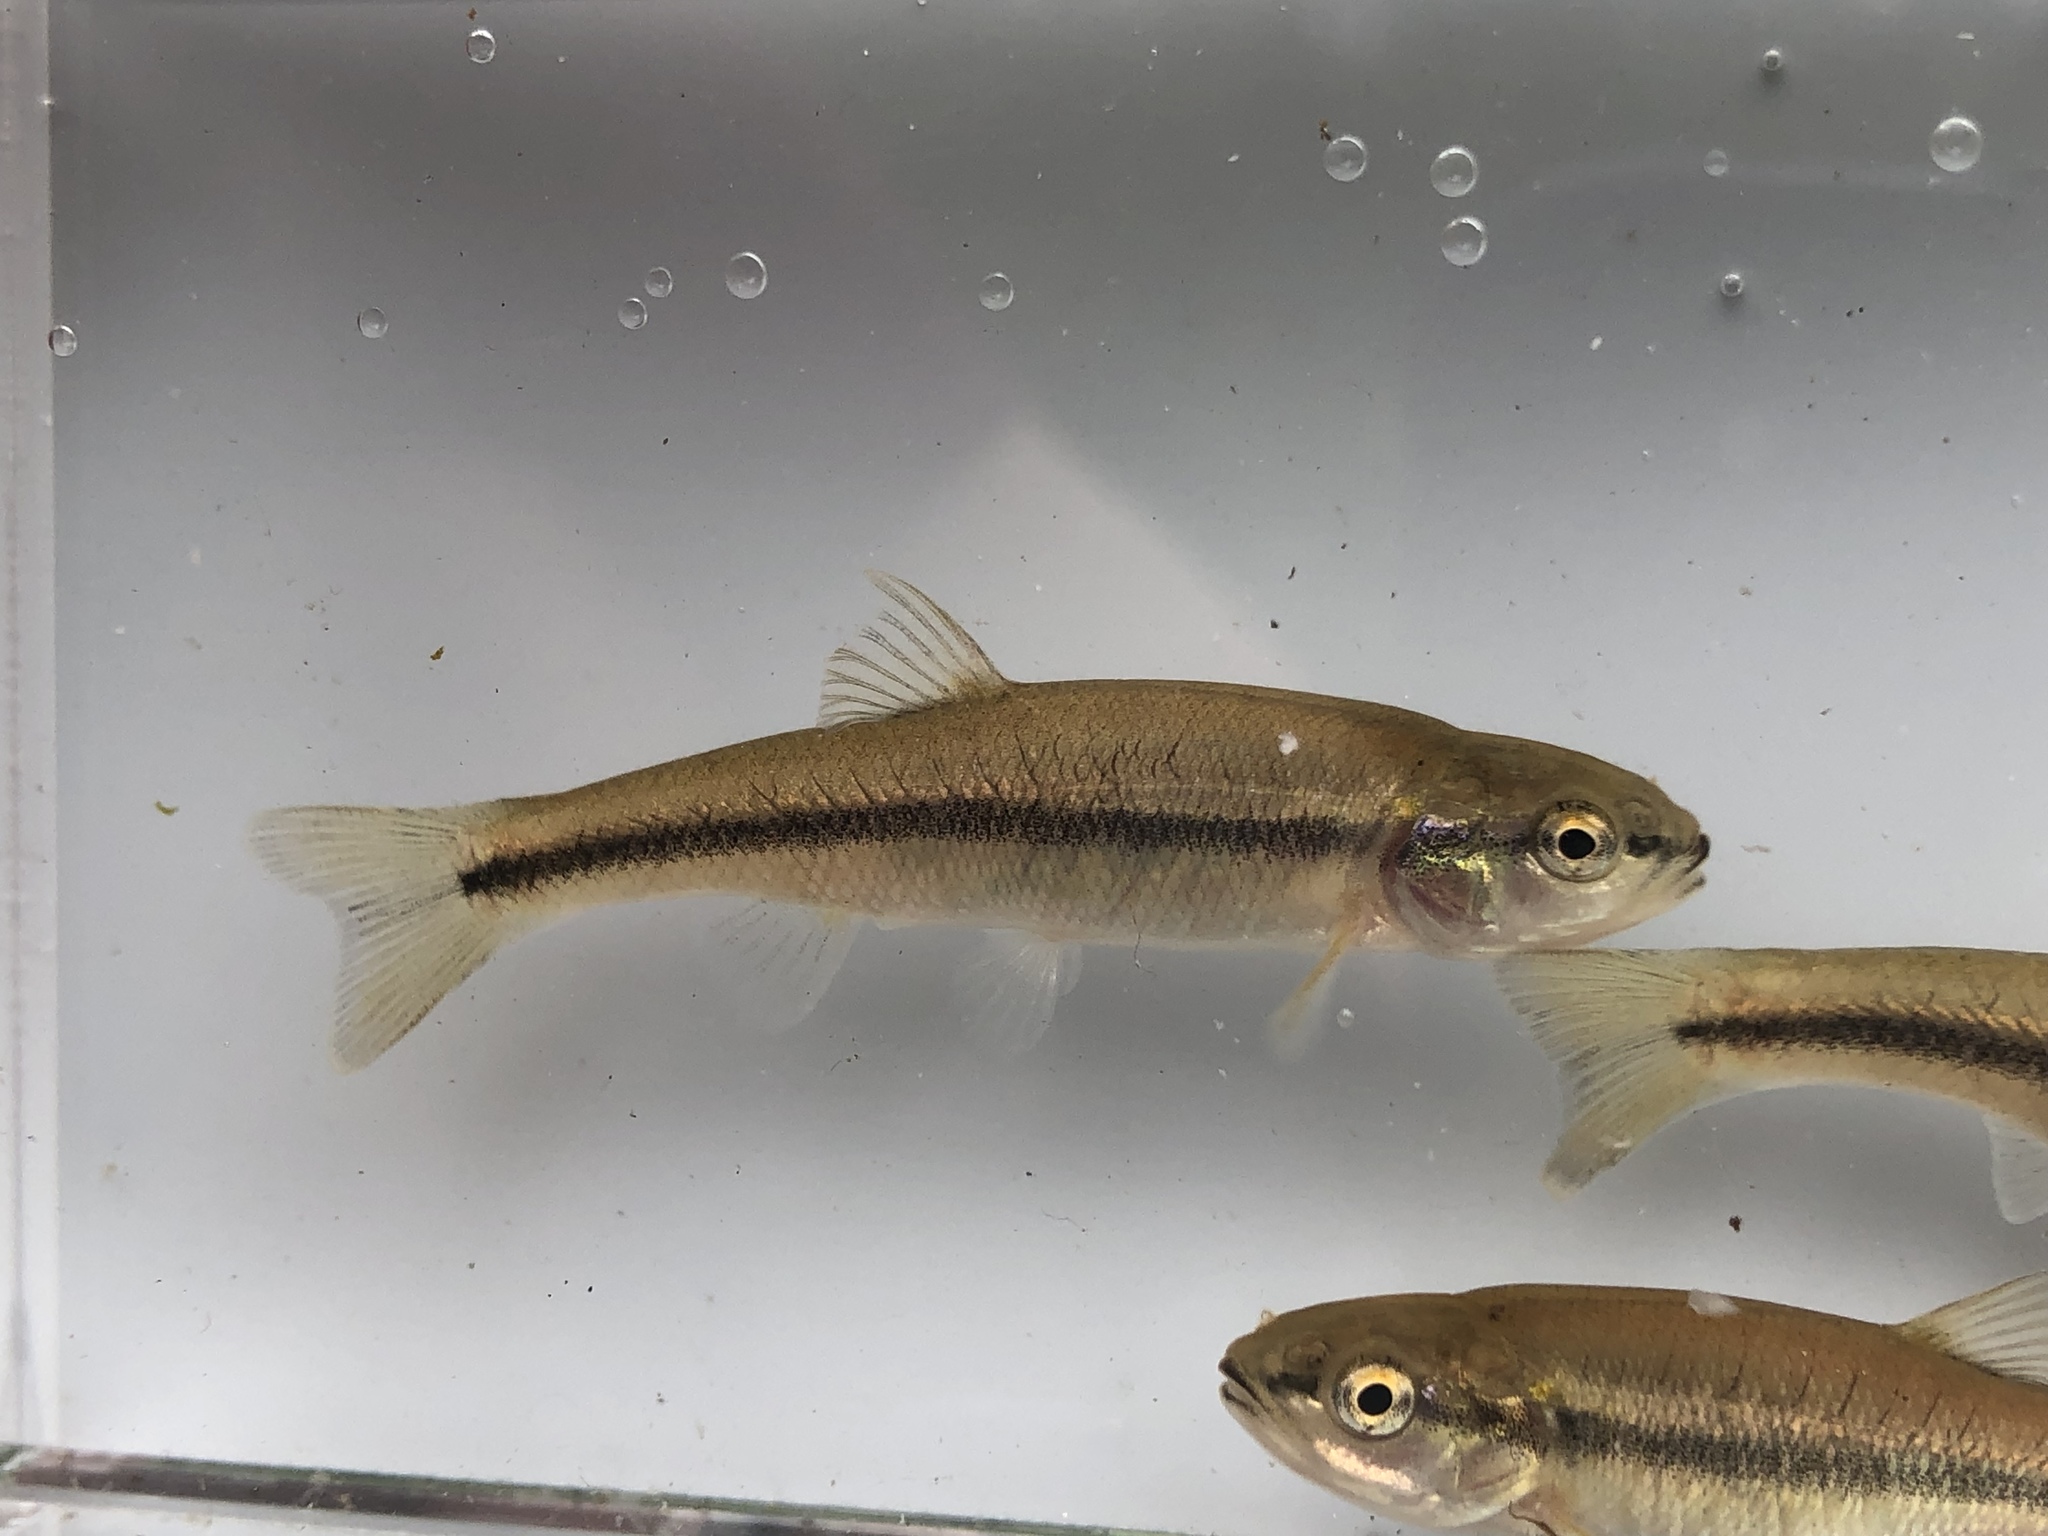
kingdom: Animalia
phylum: Chordata
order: Cypriniformes
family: Cyprinidae
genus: Semotilus
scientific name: Semotilus atromaculatus
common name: Creek chub
